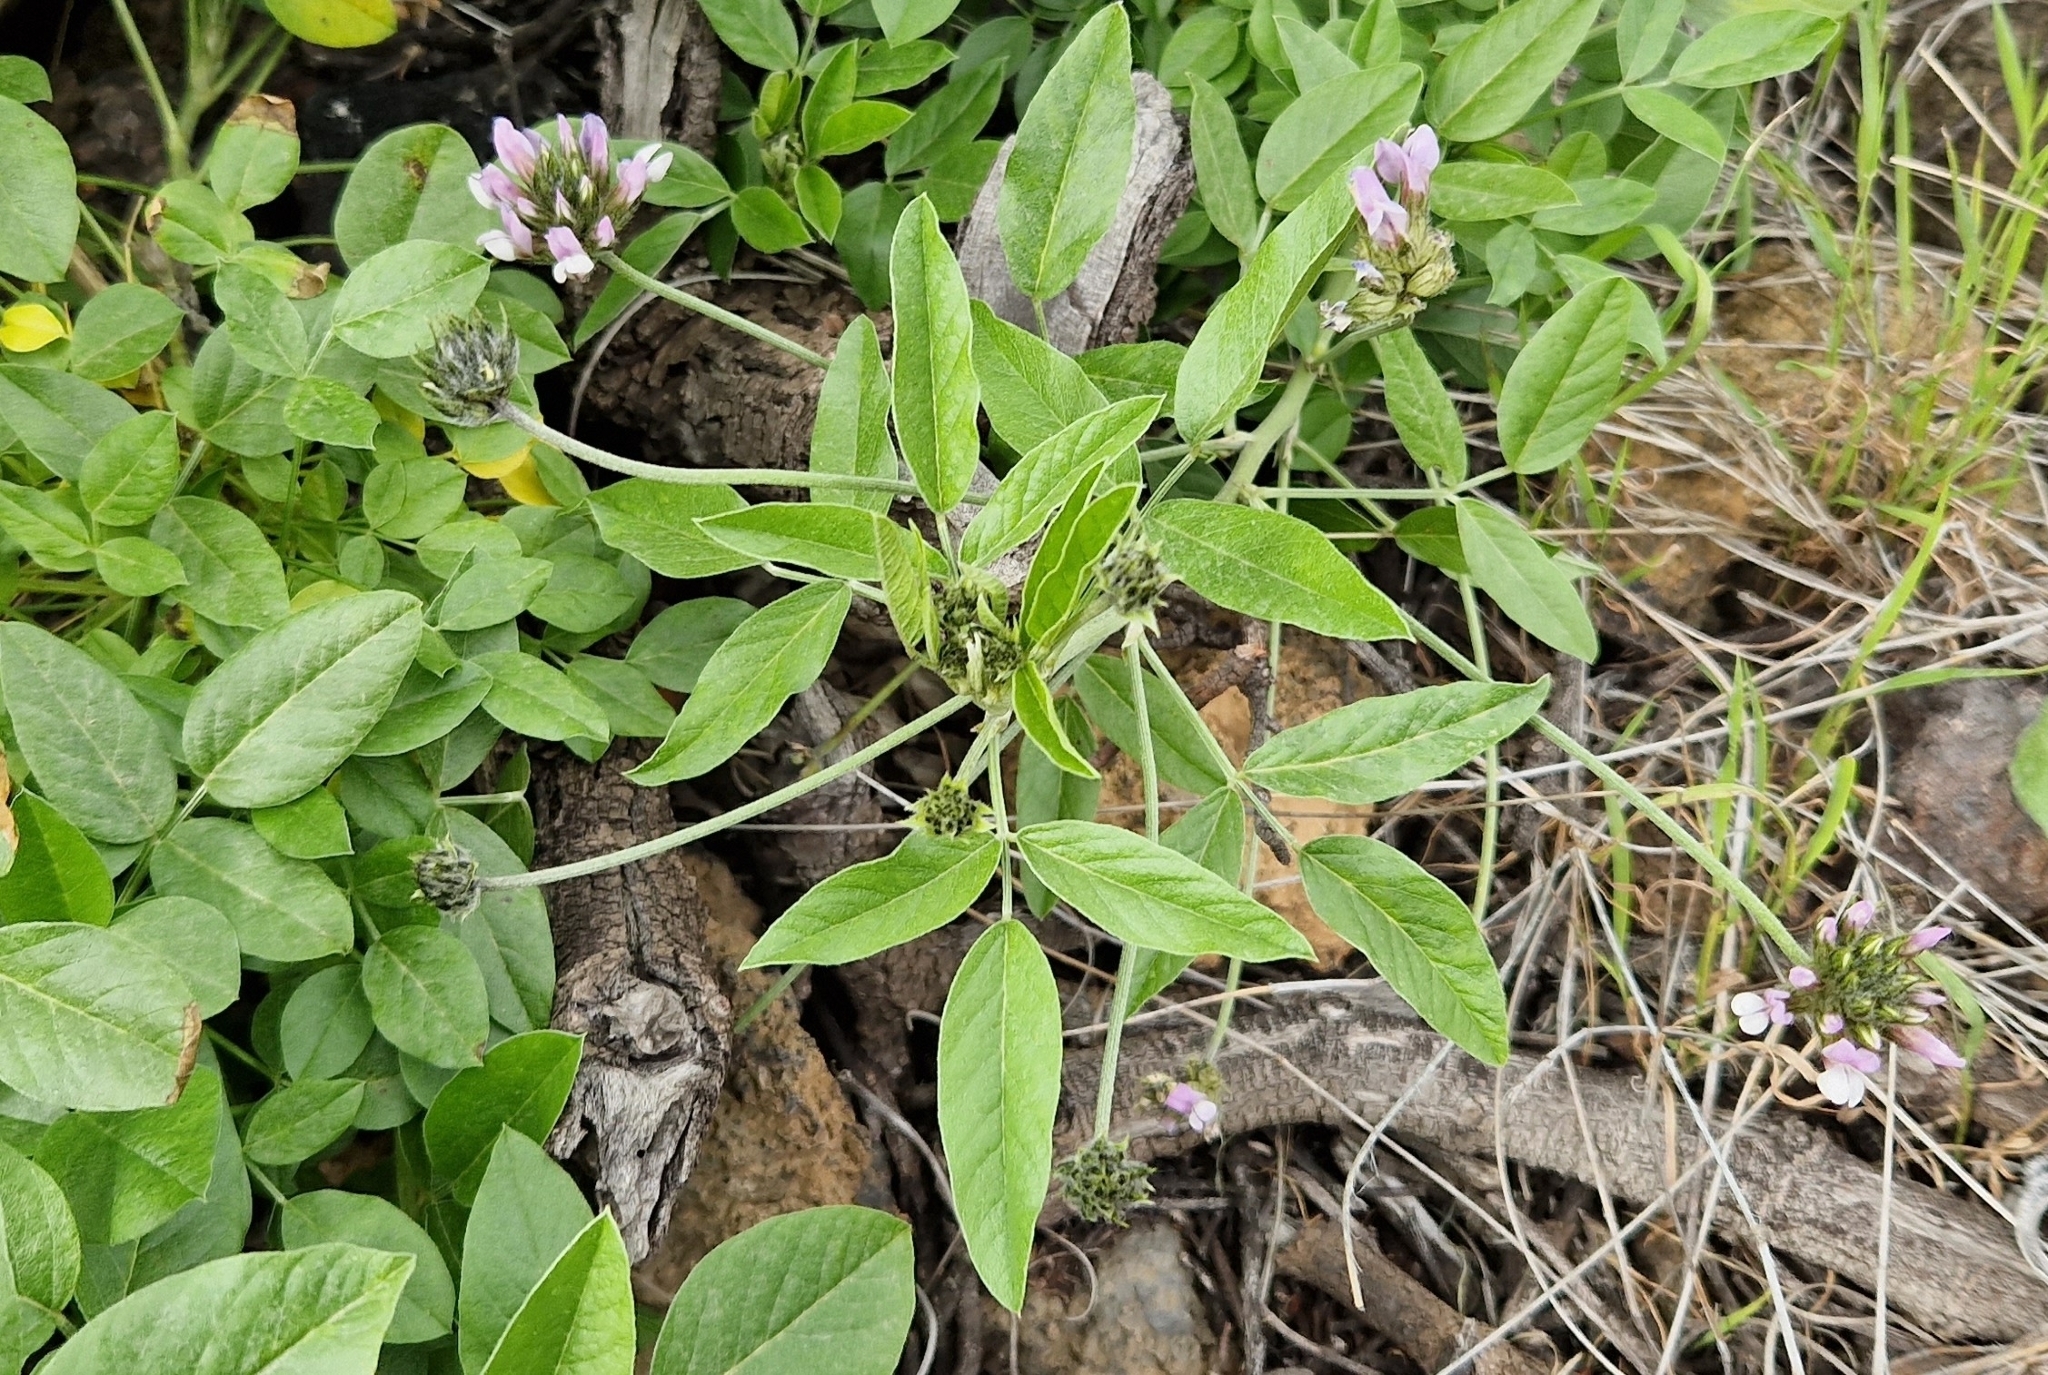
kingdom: Plantae
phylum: Tracheophyta
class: Magnoliopsida
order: Fabales
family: Fabaceae
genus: Bituminaria
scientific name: Bituminaria bituminosa
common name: Arabian pea
